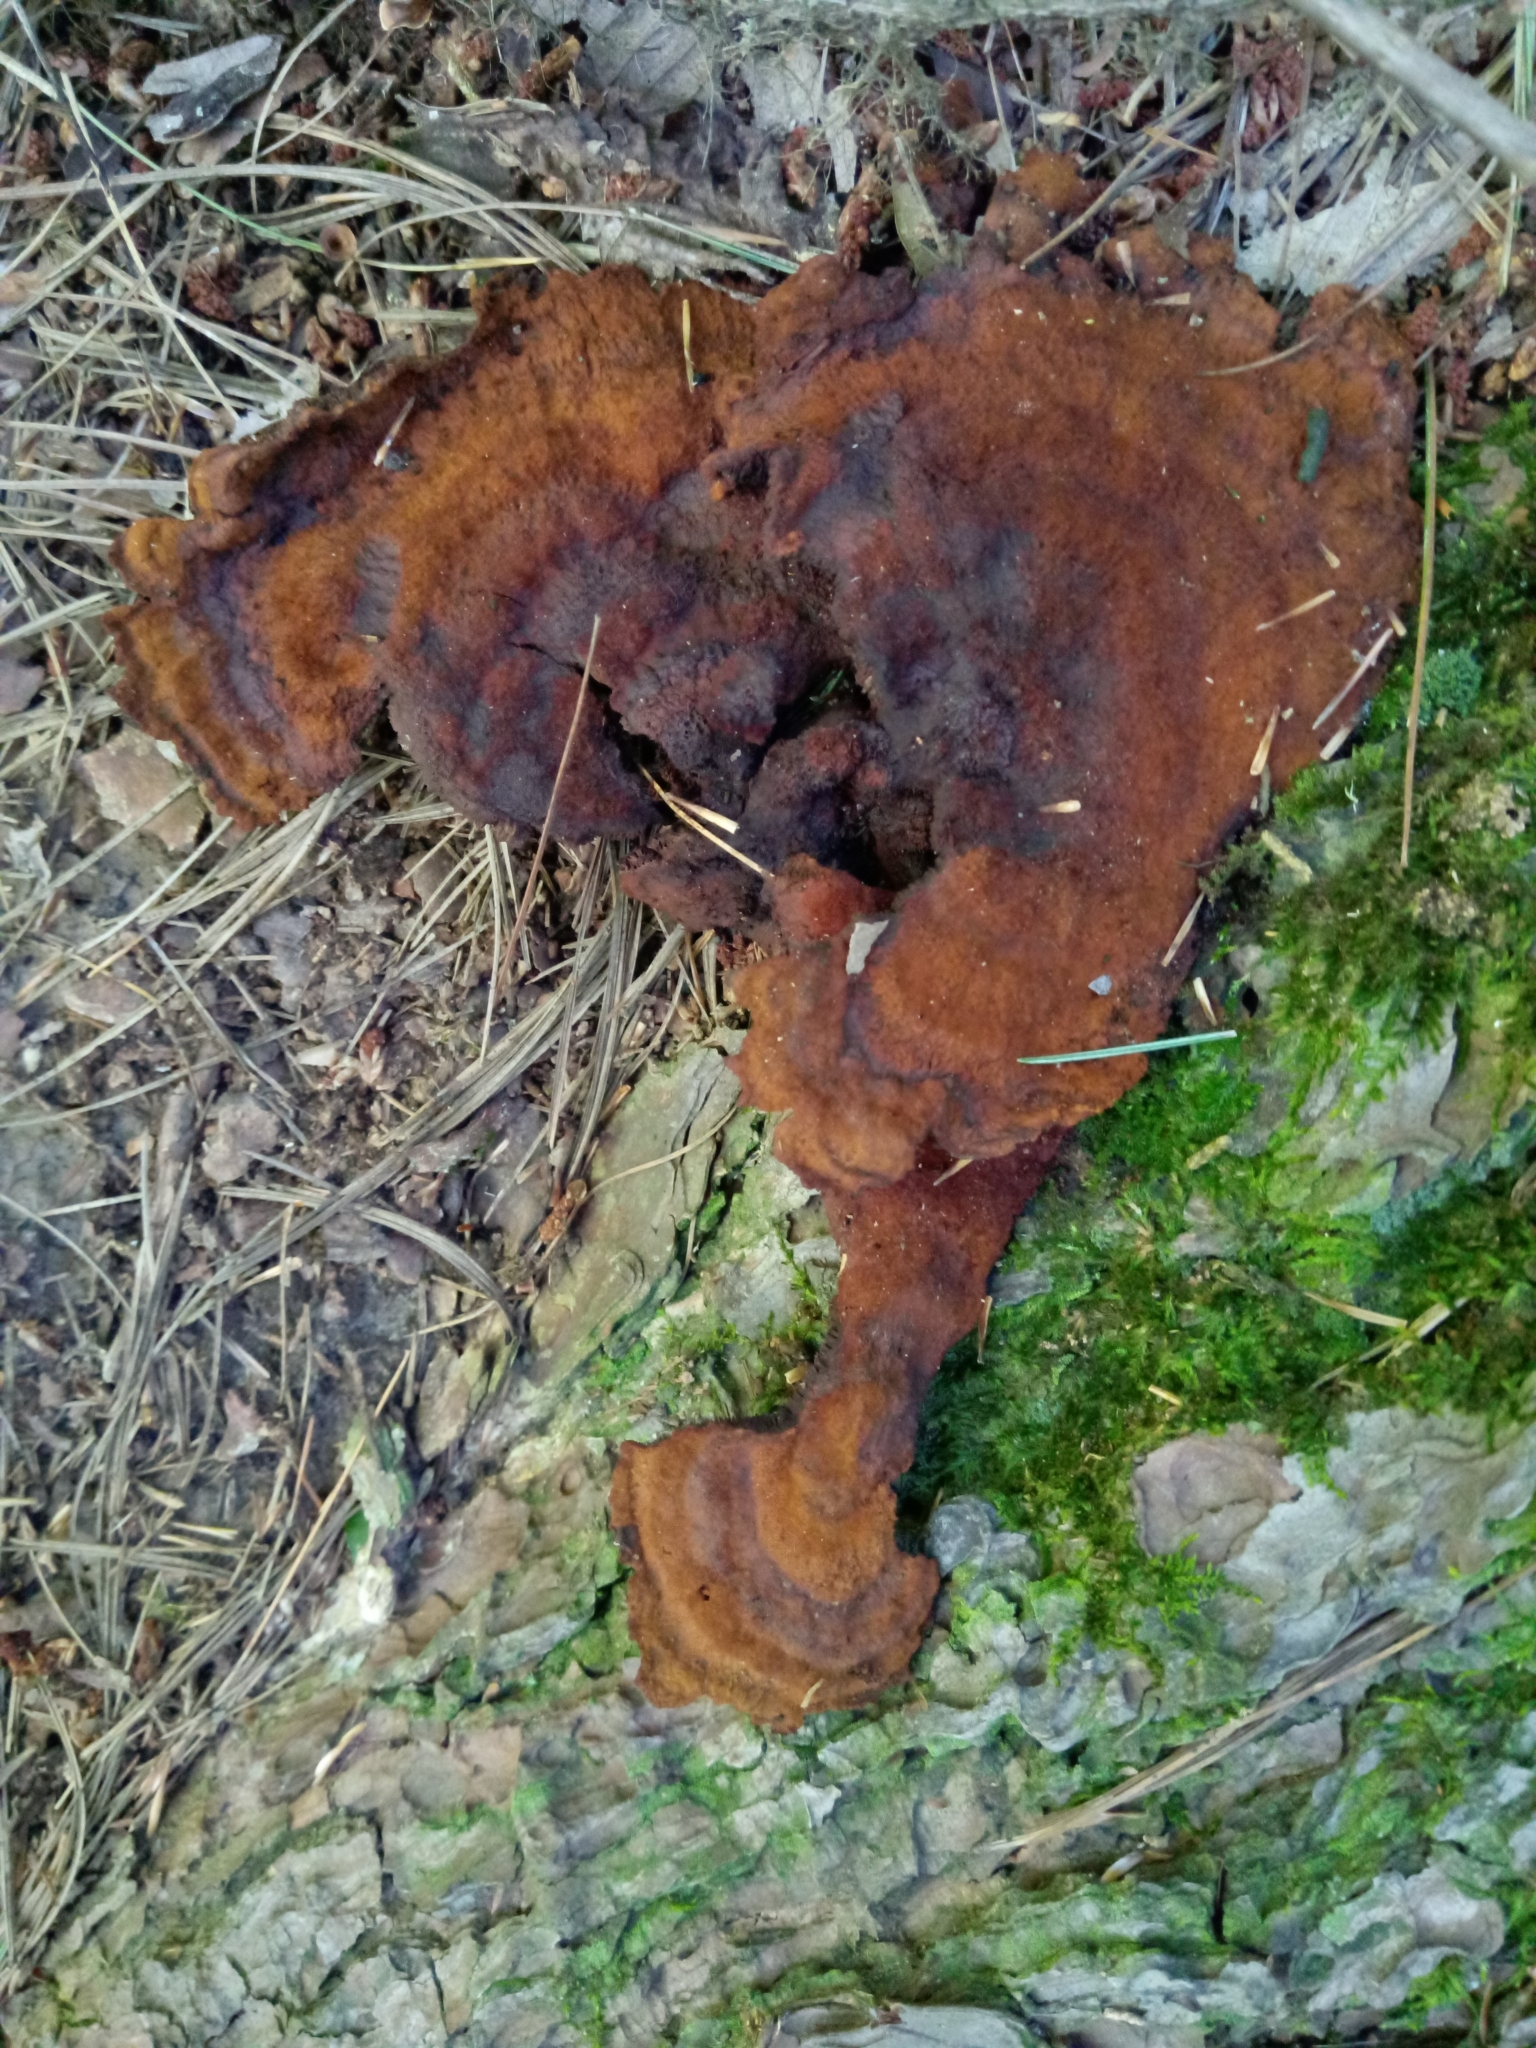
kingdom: Fungi
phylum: Basidiomycota
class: Agaricomycetes
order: Polyporales
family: Laetiporaceae
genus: Phaeolus
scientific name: Phaeolus schweinitzii
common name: Dyer's mazegill
